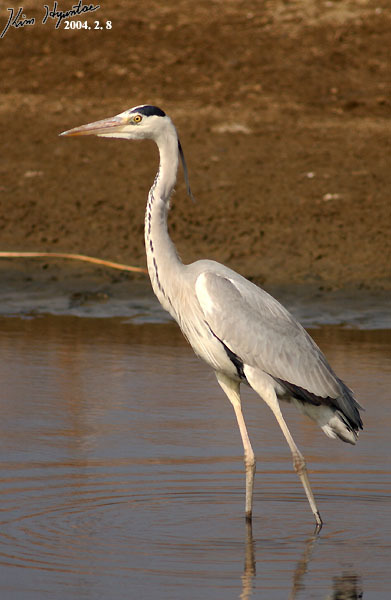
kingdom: Animalia
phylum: Chordata
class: Aves
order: Pelecaniformes
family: Ardeidae
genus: Ardea
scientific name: Ardea alba
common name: Great egret
